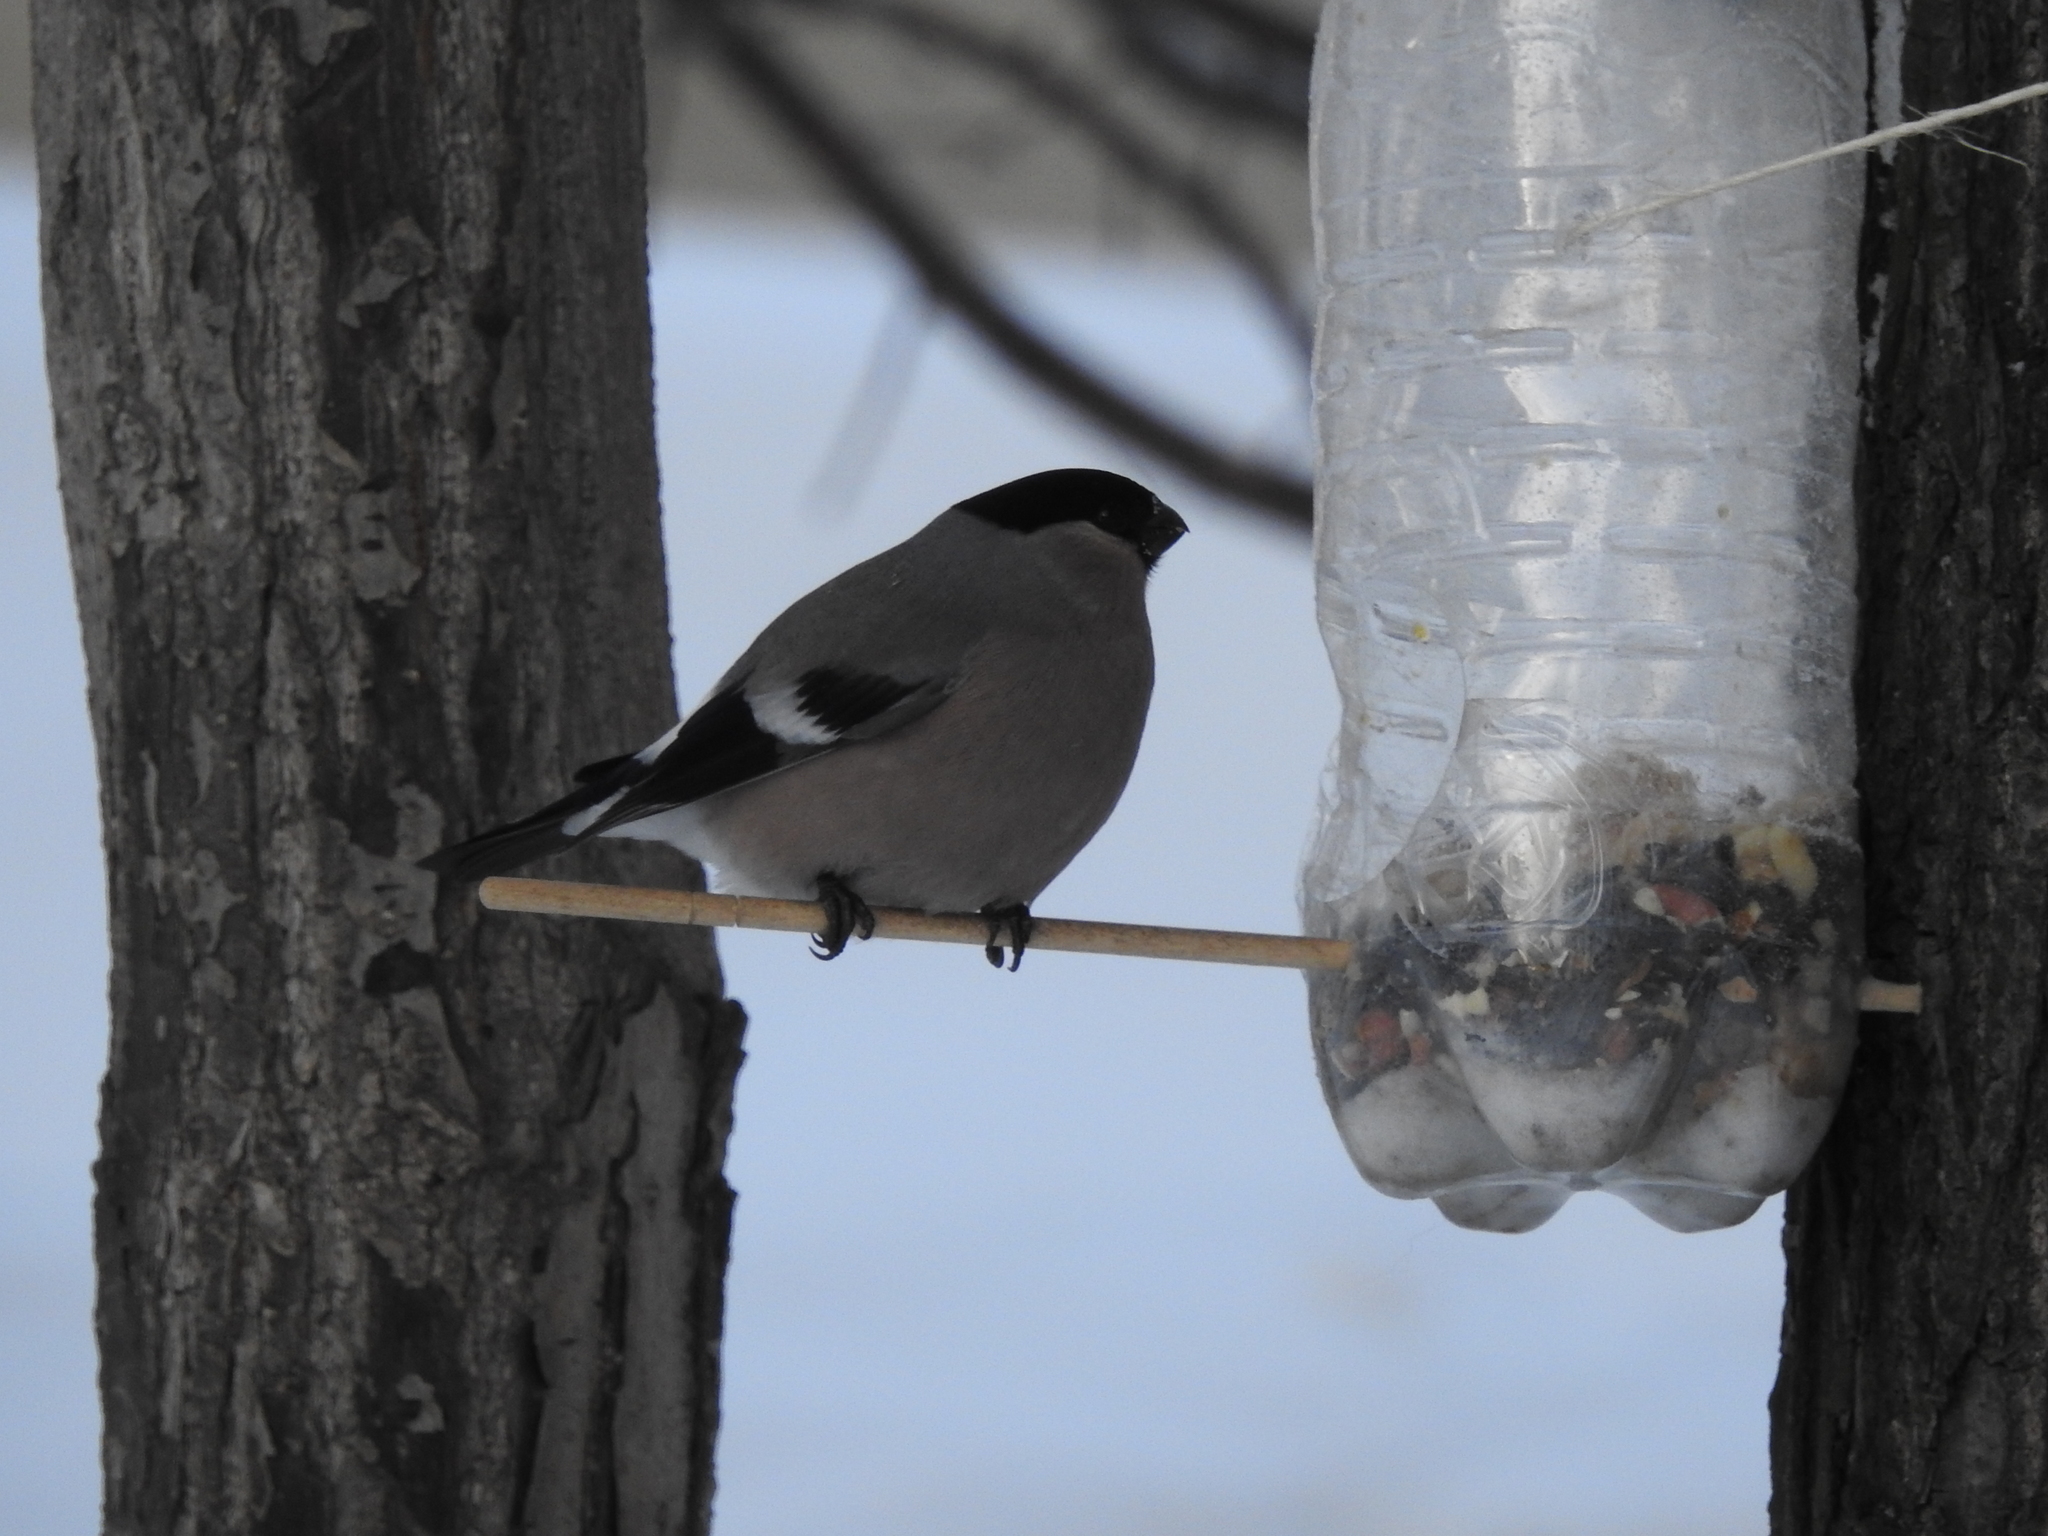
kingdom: Animalia
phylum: Chordata
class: Aves
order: Passeriformes
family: Fringillidae
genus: Pyrrhula
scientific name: Pyrrhula pyrrhula
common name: Eurasian bullfinch
